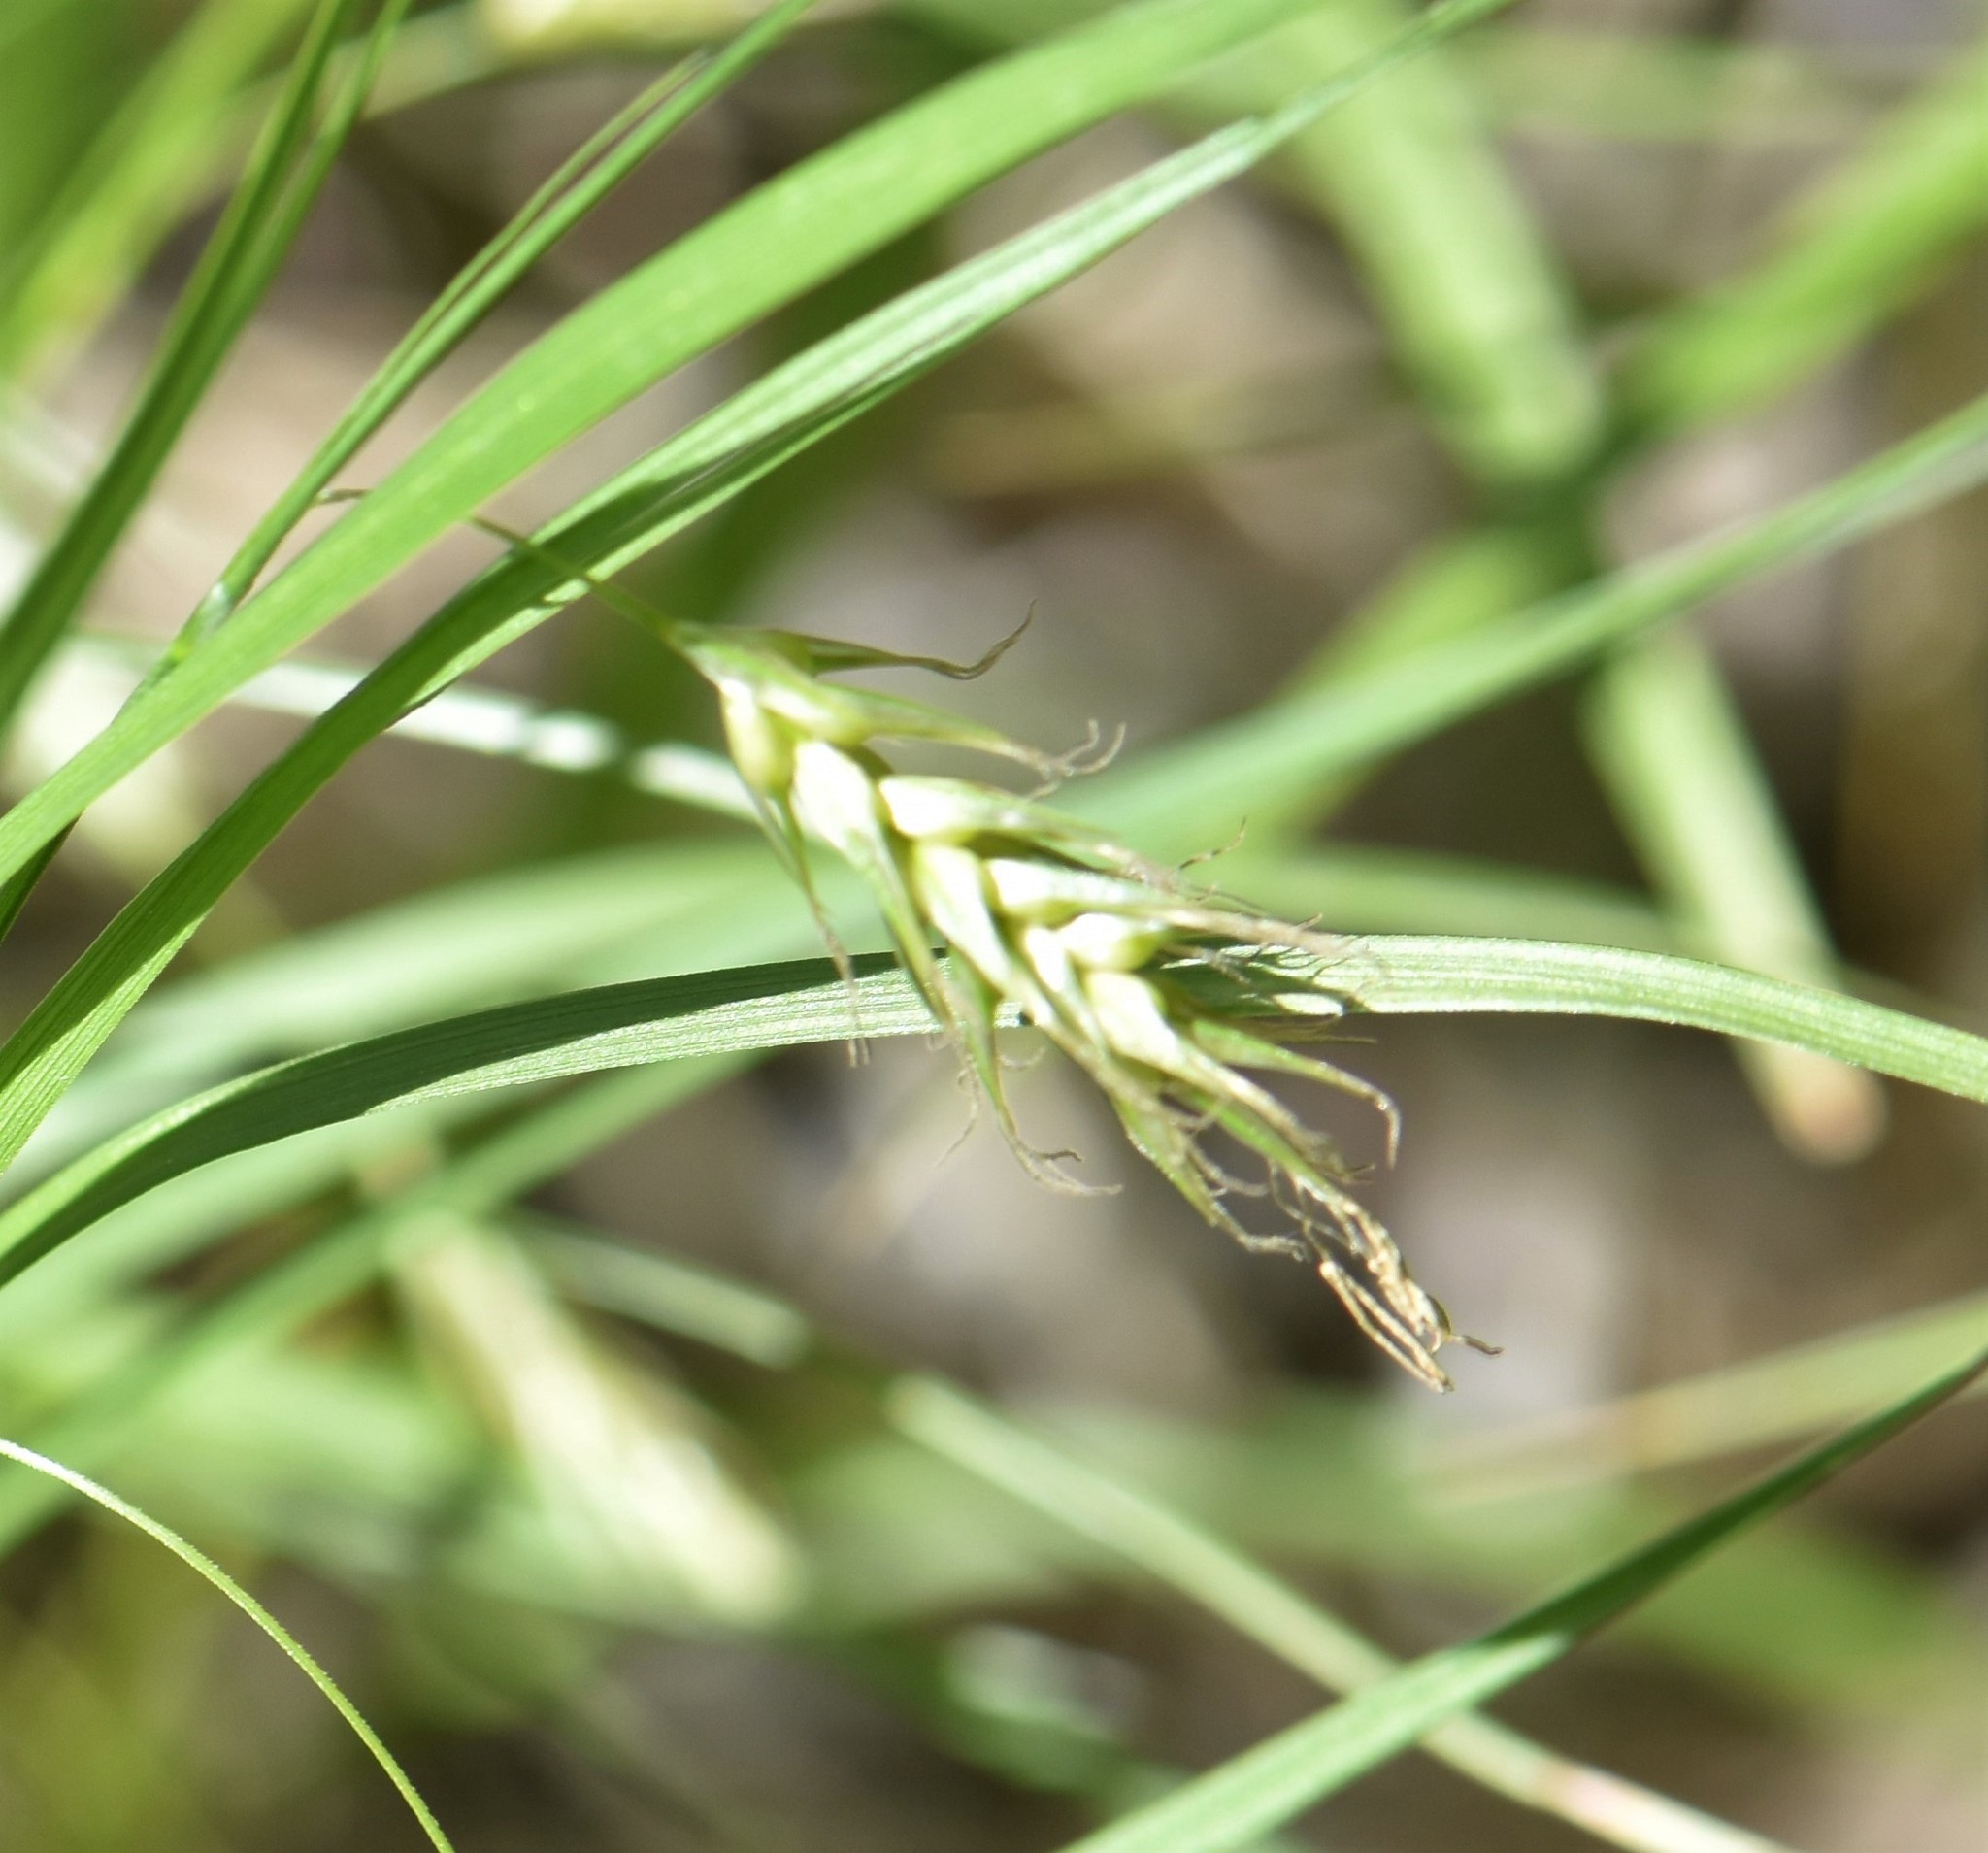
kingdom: Plantae
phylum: Tracheophyta
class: Liliopsida
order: Poales
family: Cyperaceae
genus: Carex
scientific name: Carex sprengelii
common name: Long-beaked sedge
